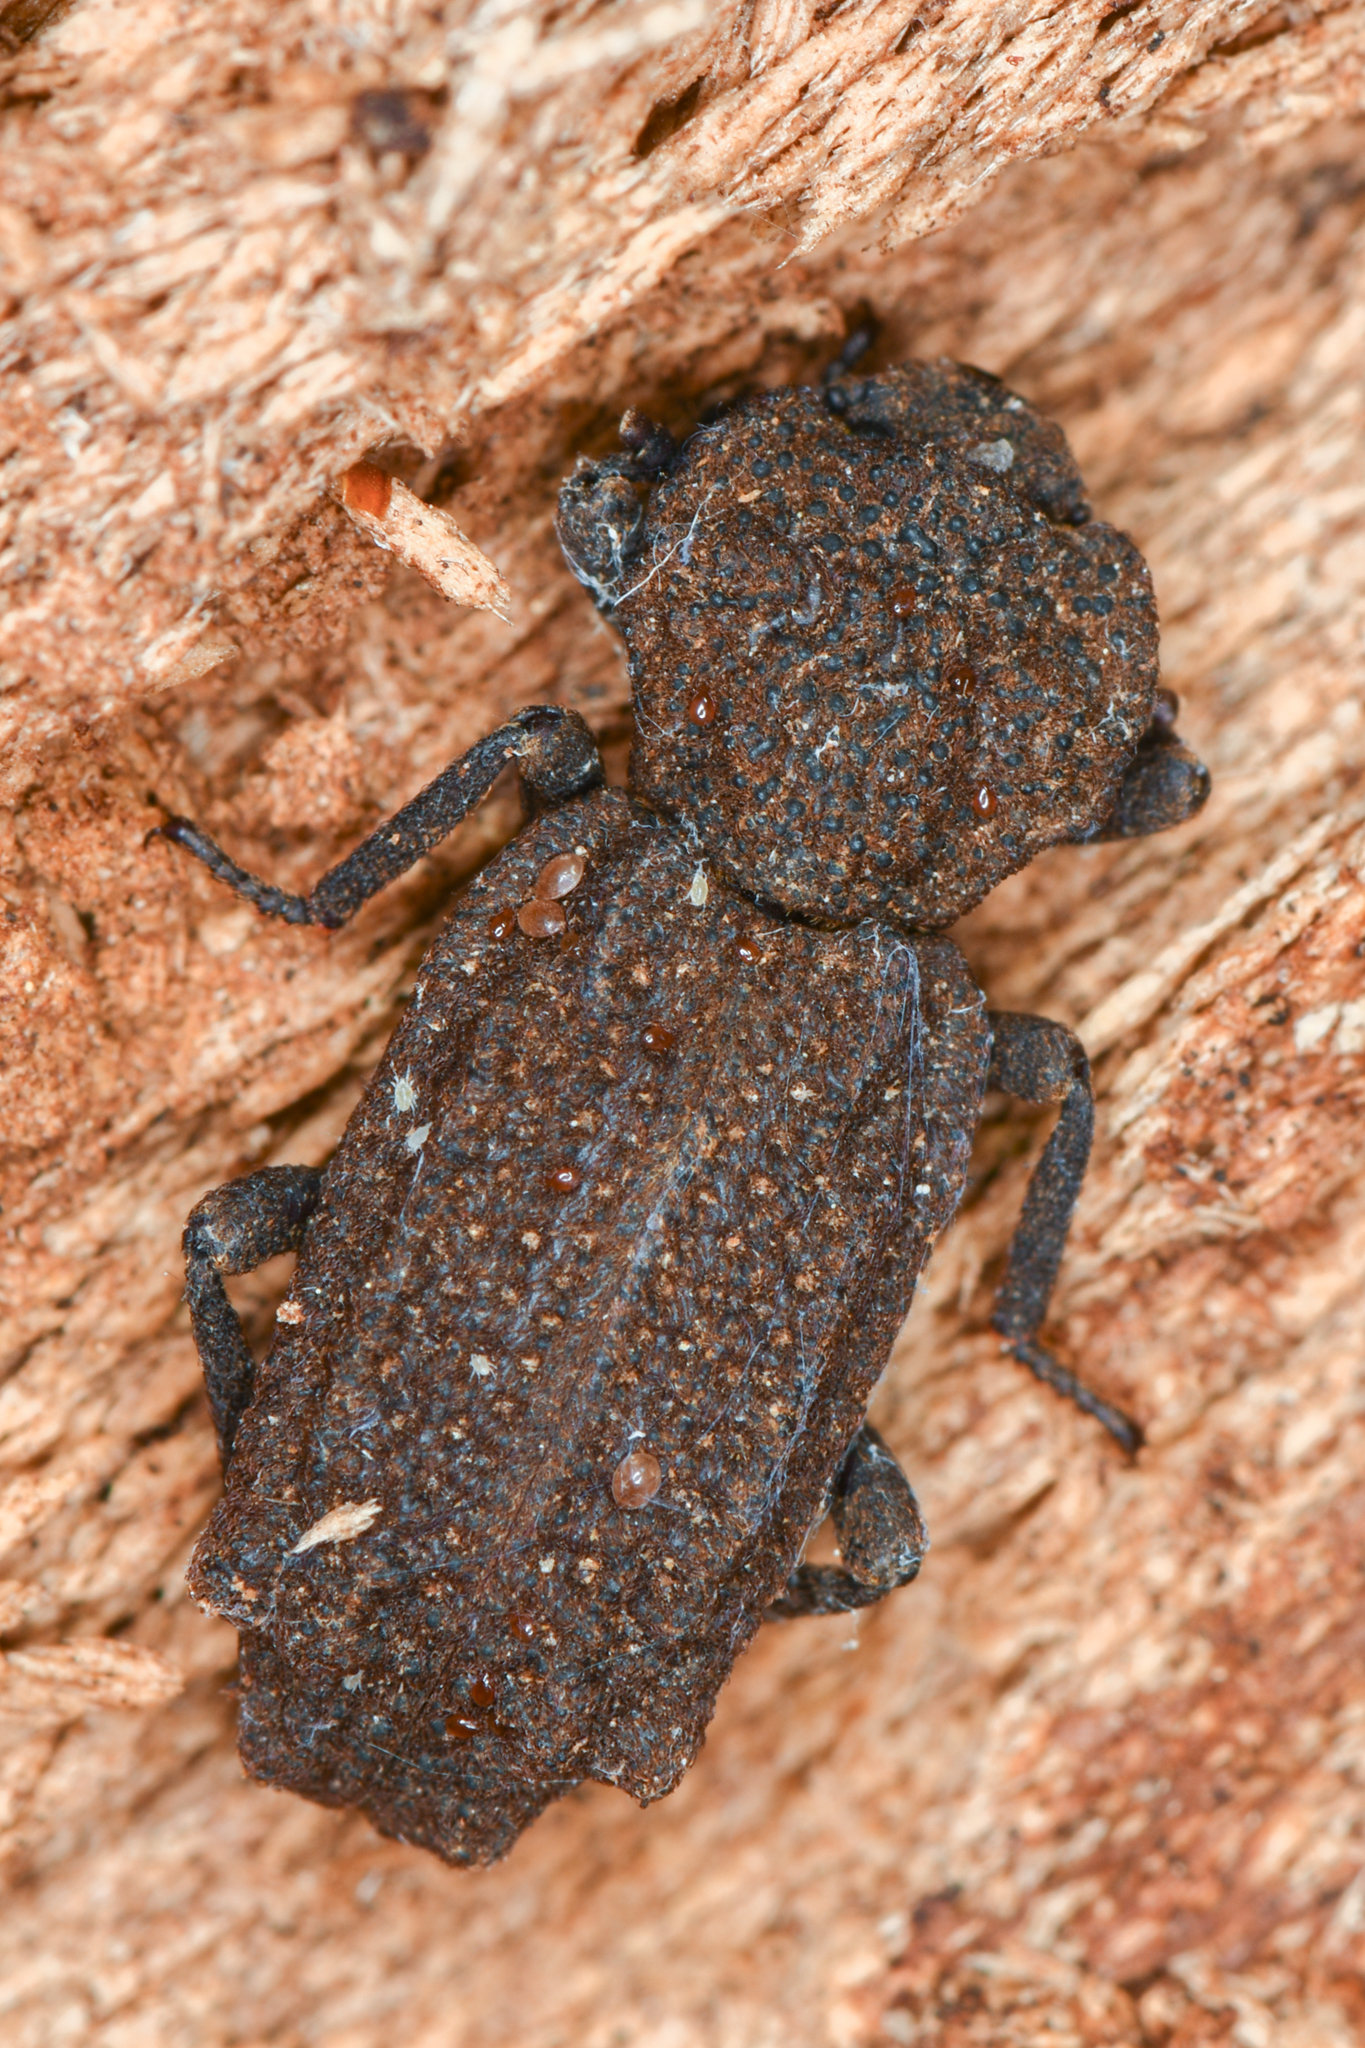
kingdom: Animalia
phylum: Arthropoda
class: Insecta
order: Coleoptera
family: Zopheridae
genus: Phellopsis
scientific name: Phellopsis porcata
